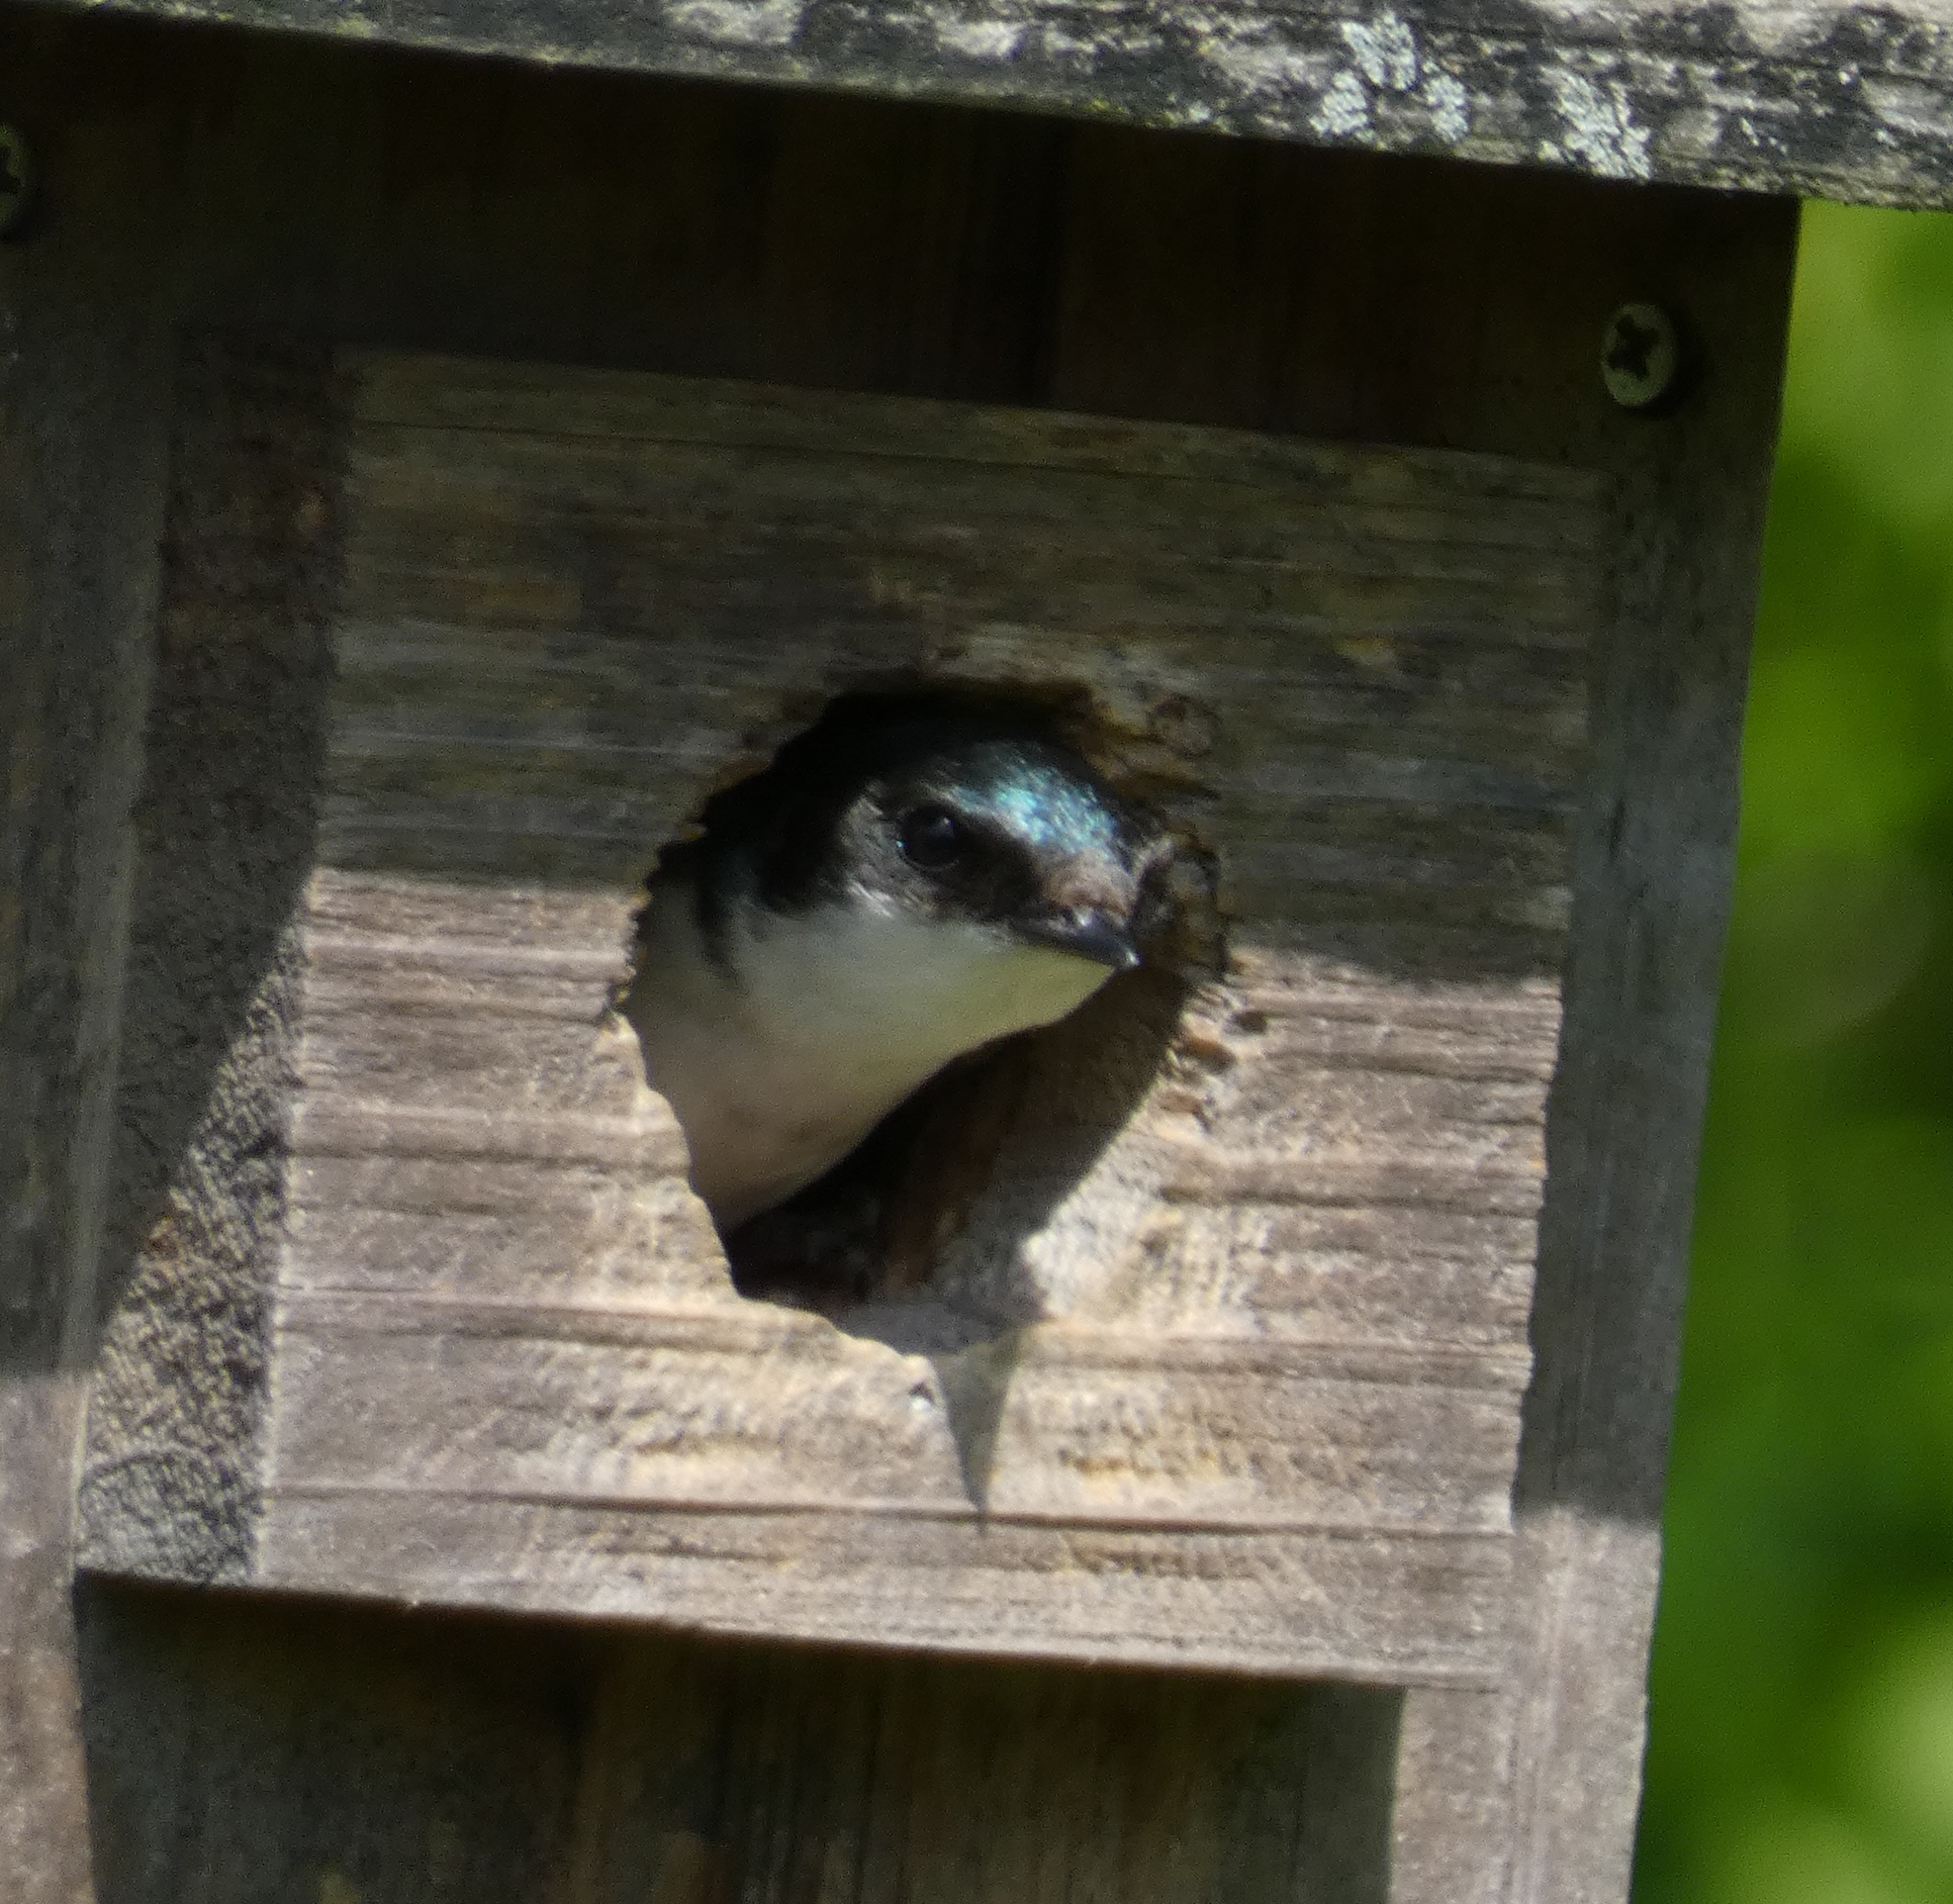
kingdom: Animalia
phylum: Chordata
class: Aves
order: Passeriformes
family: Hirundinidae
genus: Tachycineta
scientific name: Tachycineta bicolor
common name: Tree swallow
